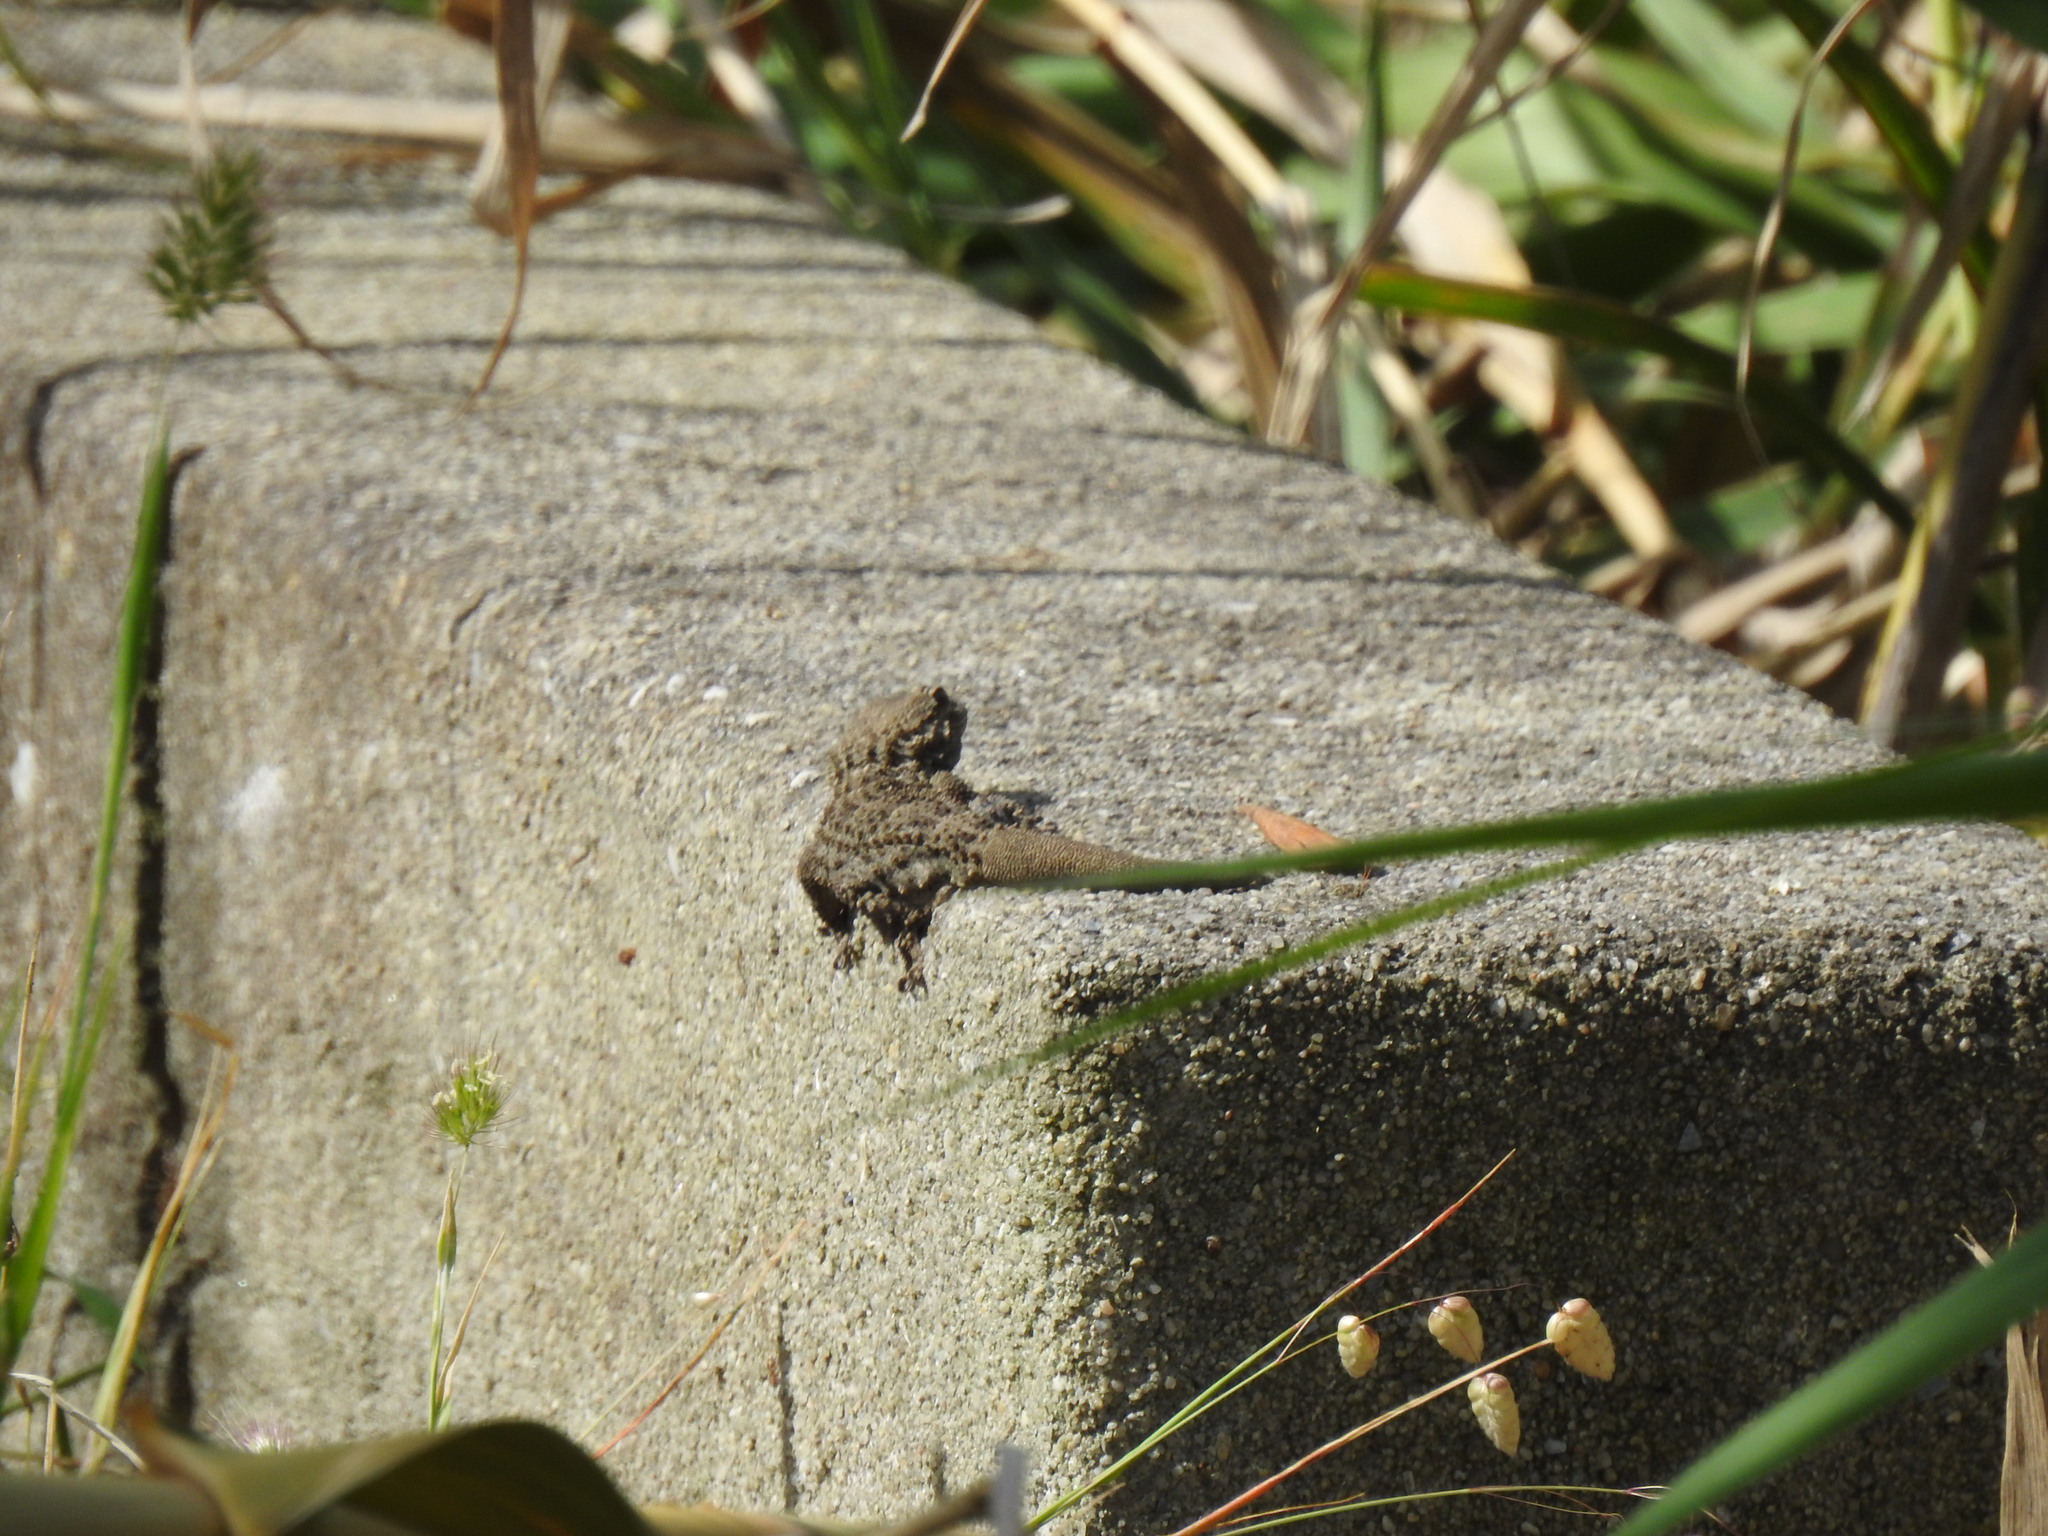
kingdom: Animalia
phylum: Chordata
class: Squamata
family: Phyllodactylidae
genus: Tarentola
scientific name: Tarentola mauritanica
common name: Moorish gecko
